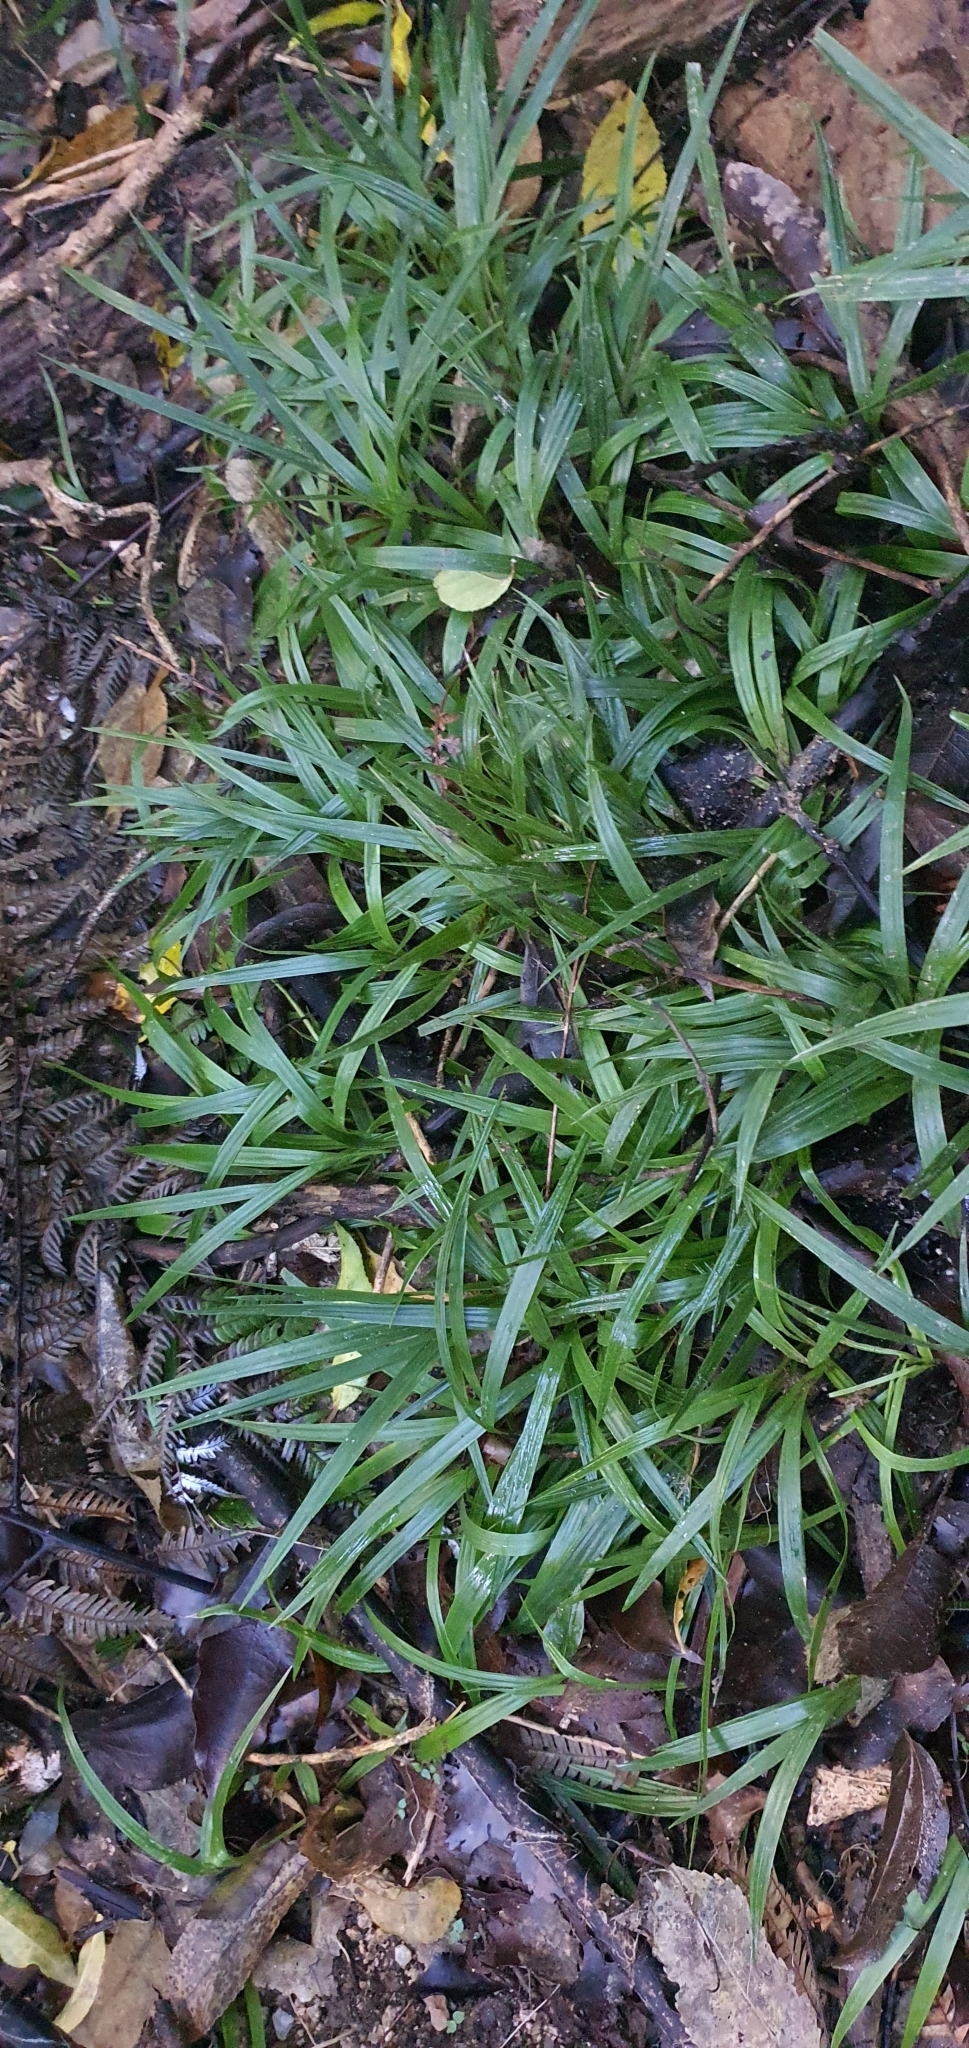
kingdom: Plantae
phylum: Tracheophyta
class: Liliopsida
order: Arecales
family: Arecaceae
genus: Rhopalostylis
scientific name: Rhopalostylis sapida
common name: Feather-duster palm
